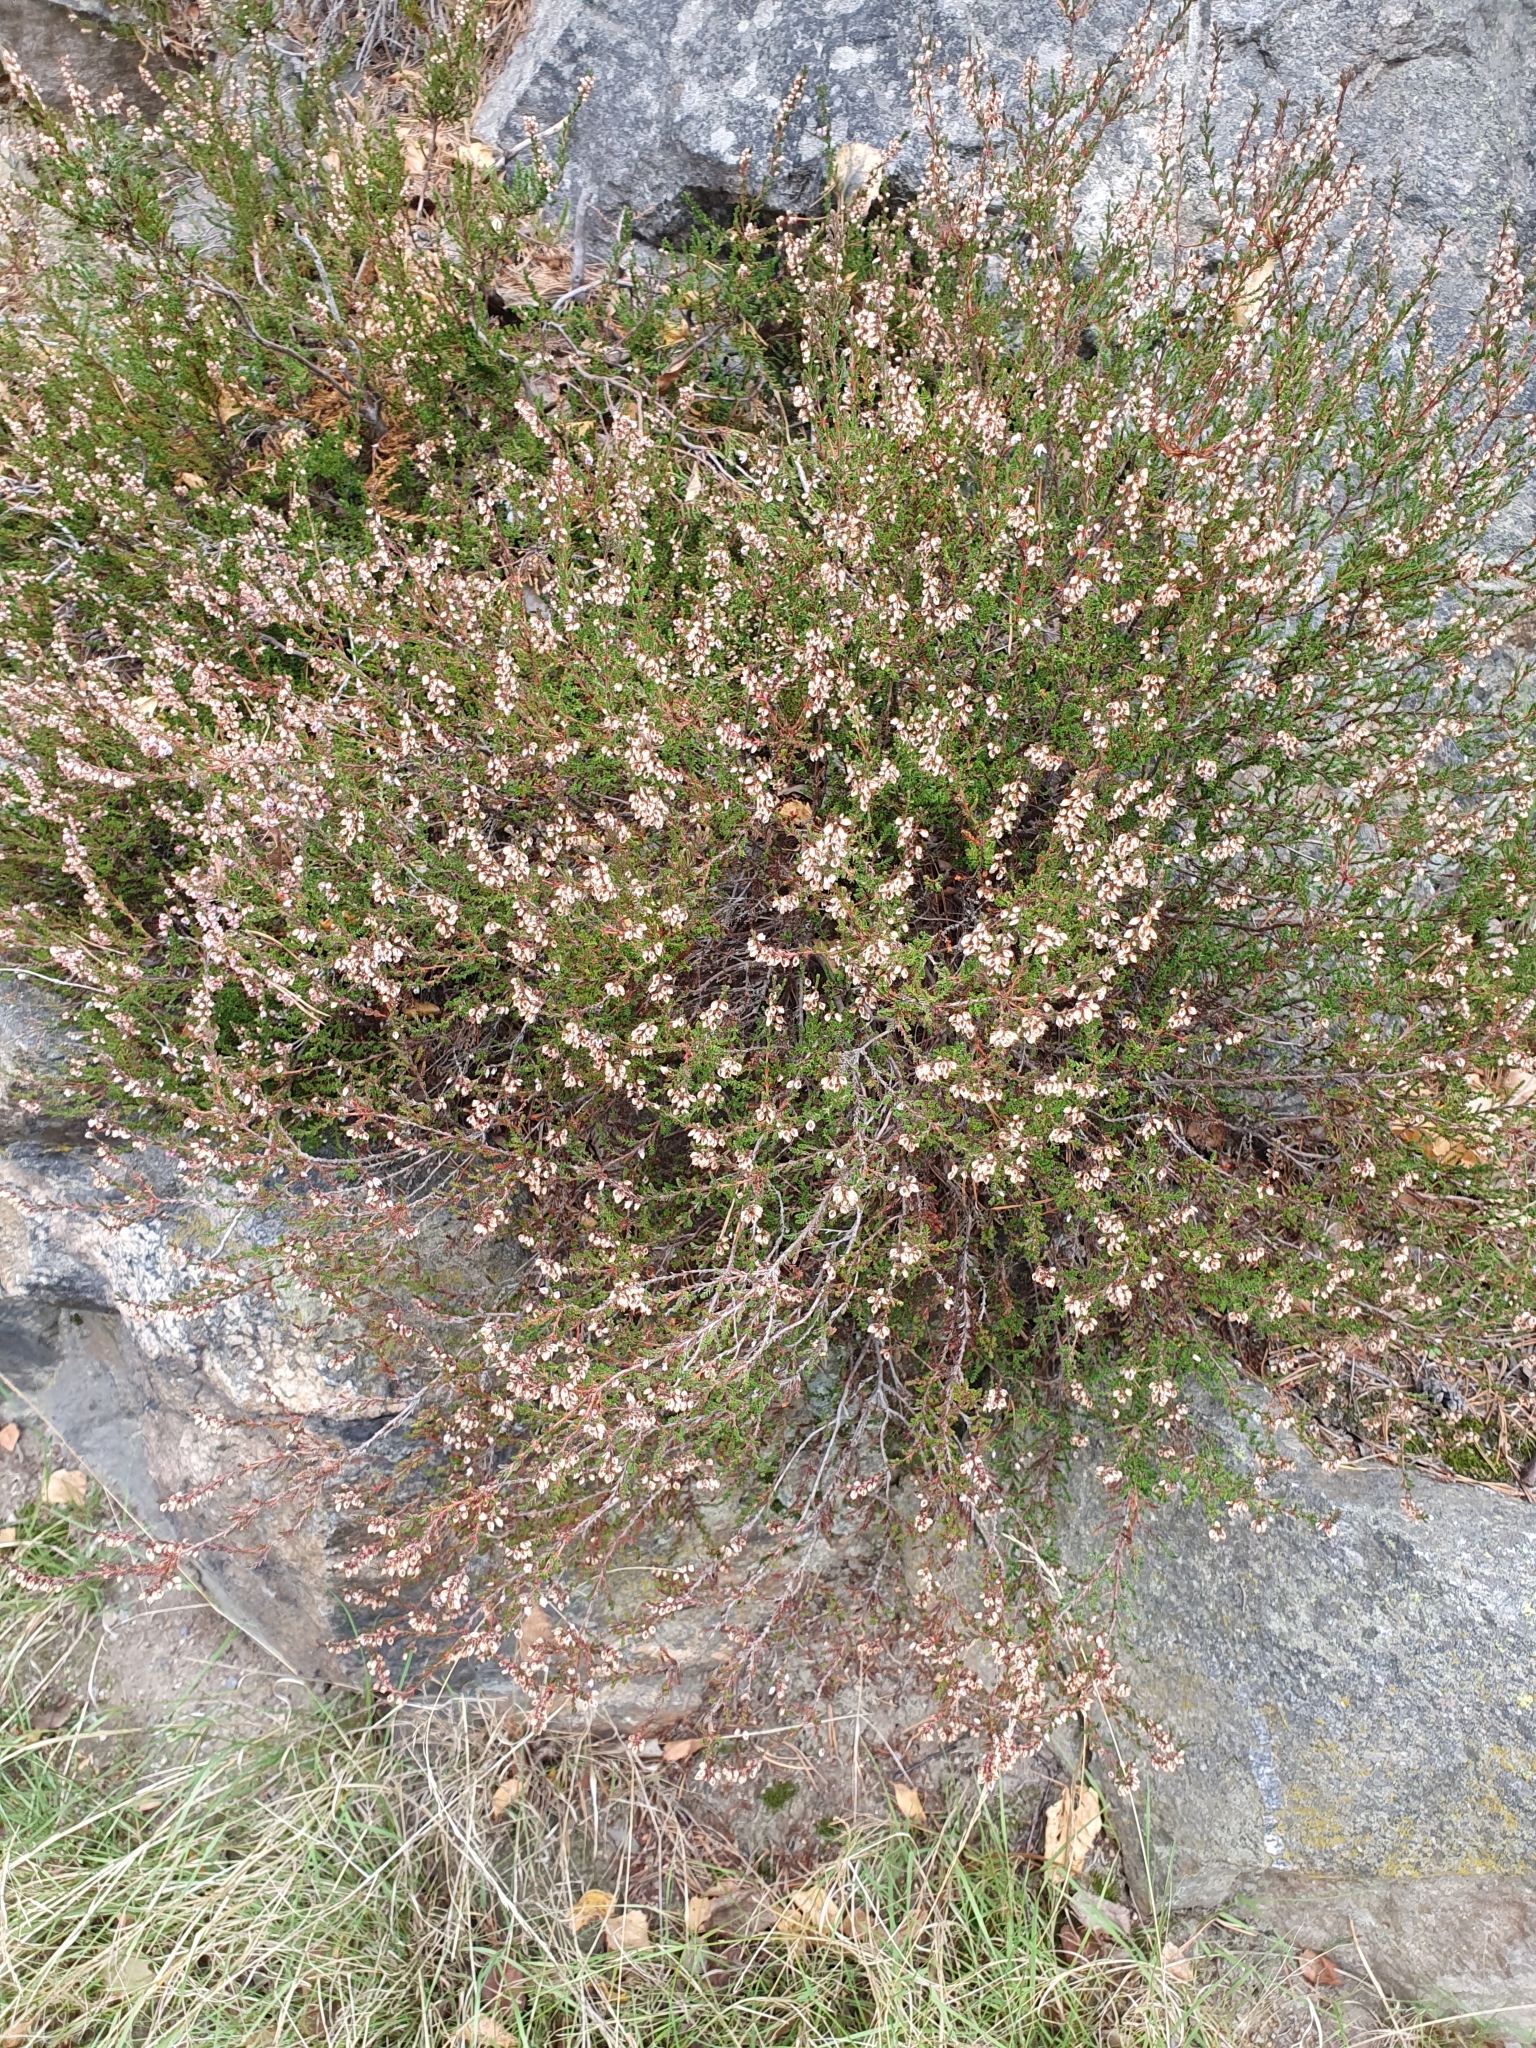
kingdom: Plantae
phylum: Tracheophyta
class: Magnoliopsida
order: Ericales
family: Ericaceae
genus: Calluna
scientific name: Calluna vulgaris
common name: Heather
